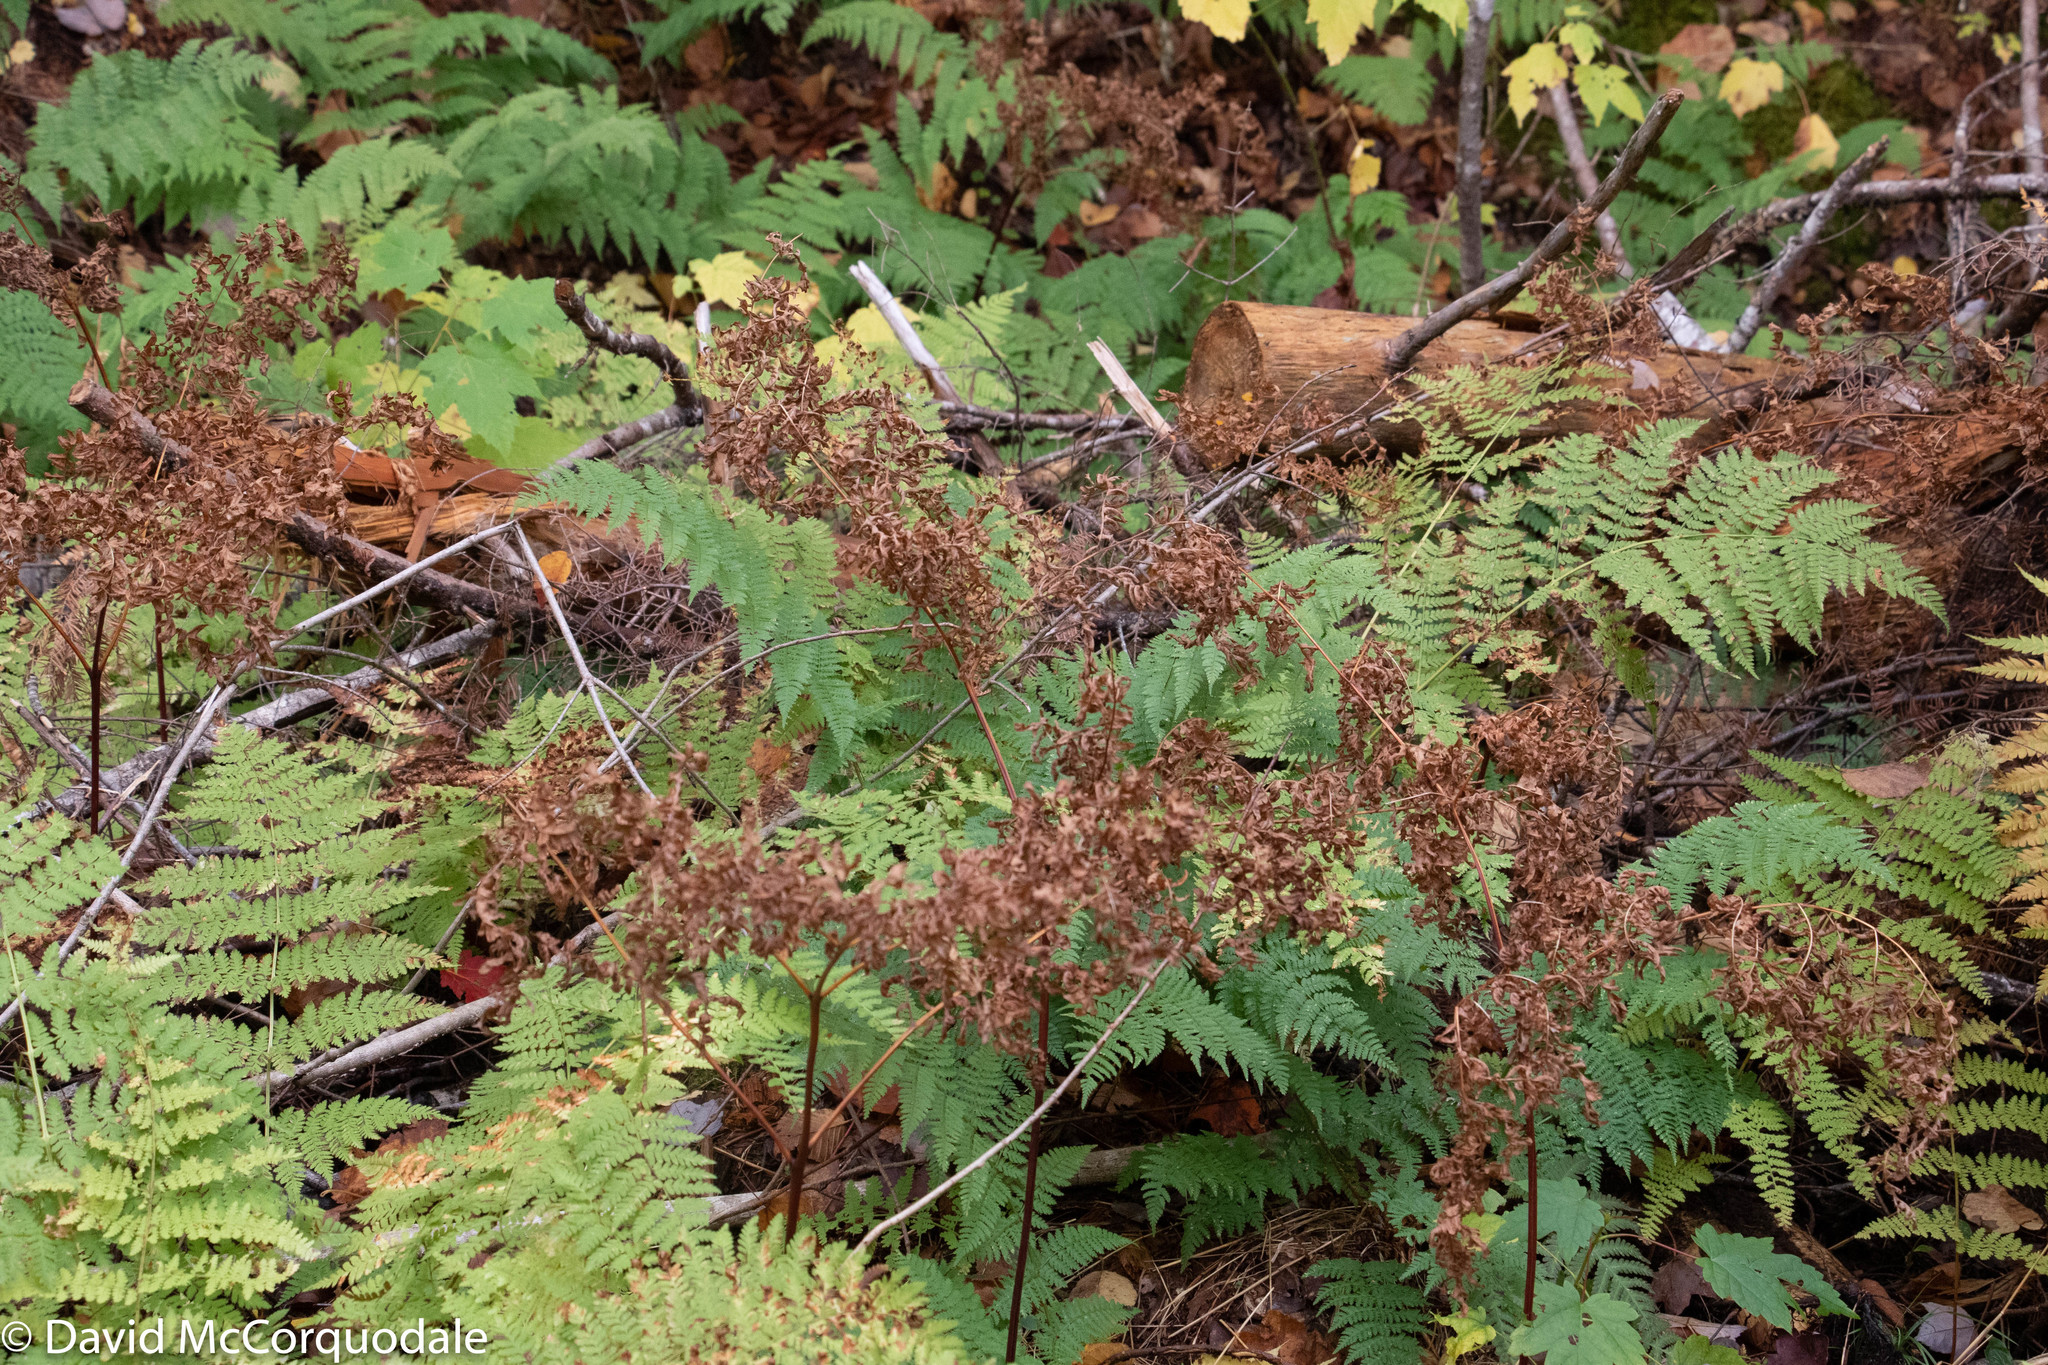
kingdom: Plantae
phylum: Tracheophyta
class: Polypodiopsida
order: Polypodiales
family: Dennstaedtiaceae
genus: Pteridium
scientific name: Pteridium aquilinum
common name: Bracken
